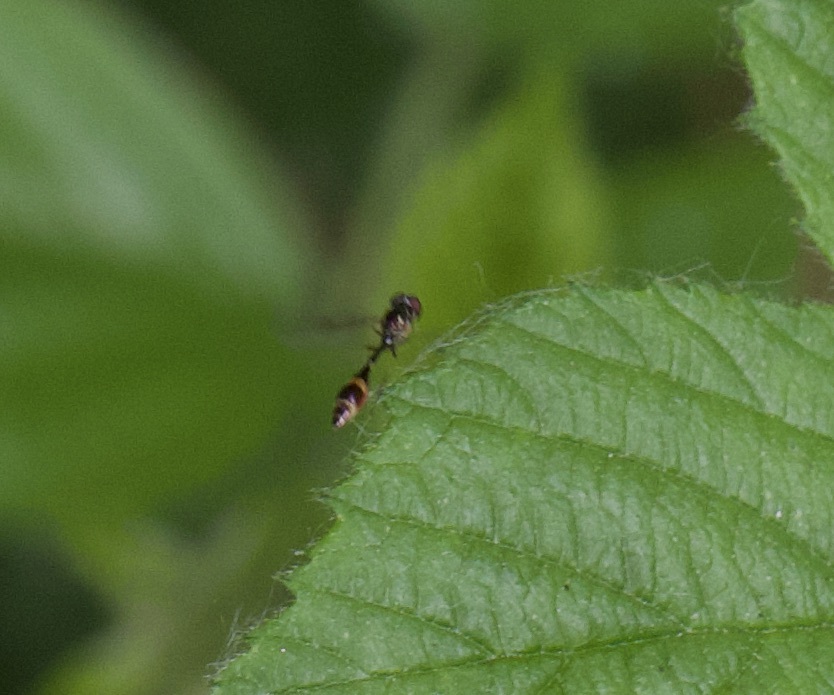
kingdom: Animalia
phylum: Arthropoda
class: Insecta
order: Diptera
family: Syrphidae
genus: Baccha
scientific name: Baccha elongata
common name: Common dainty
